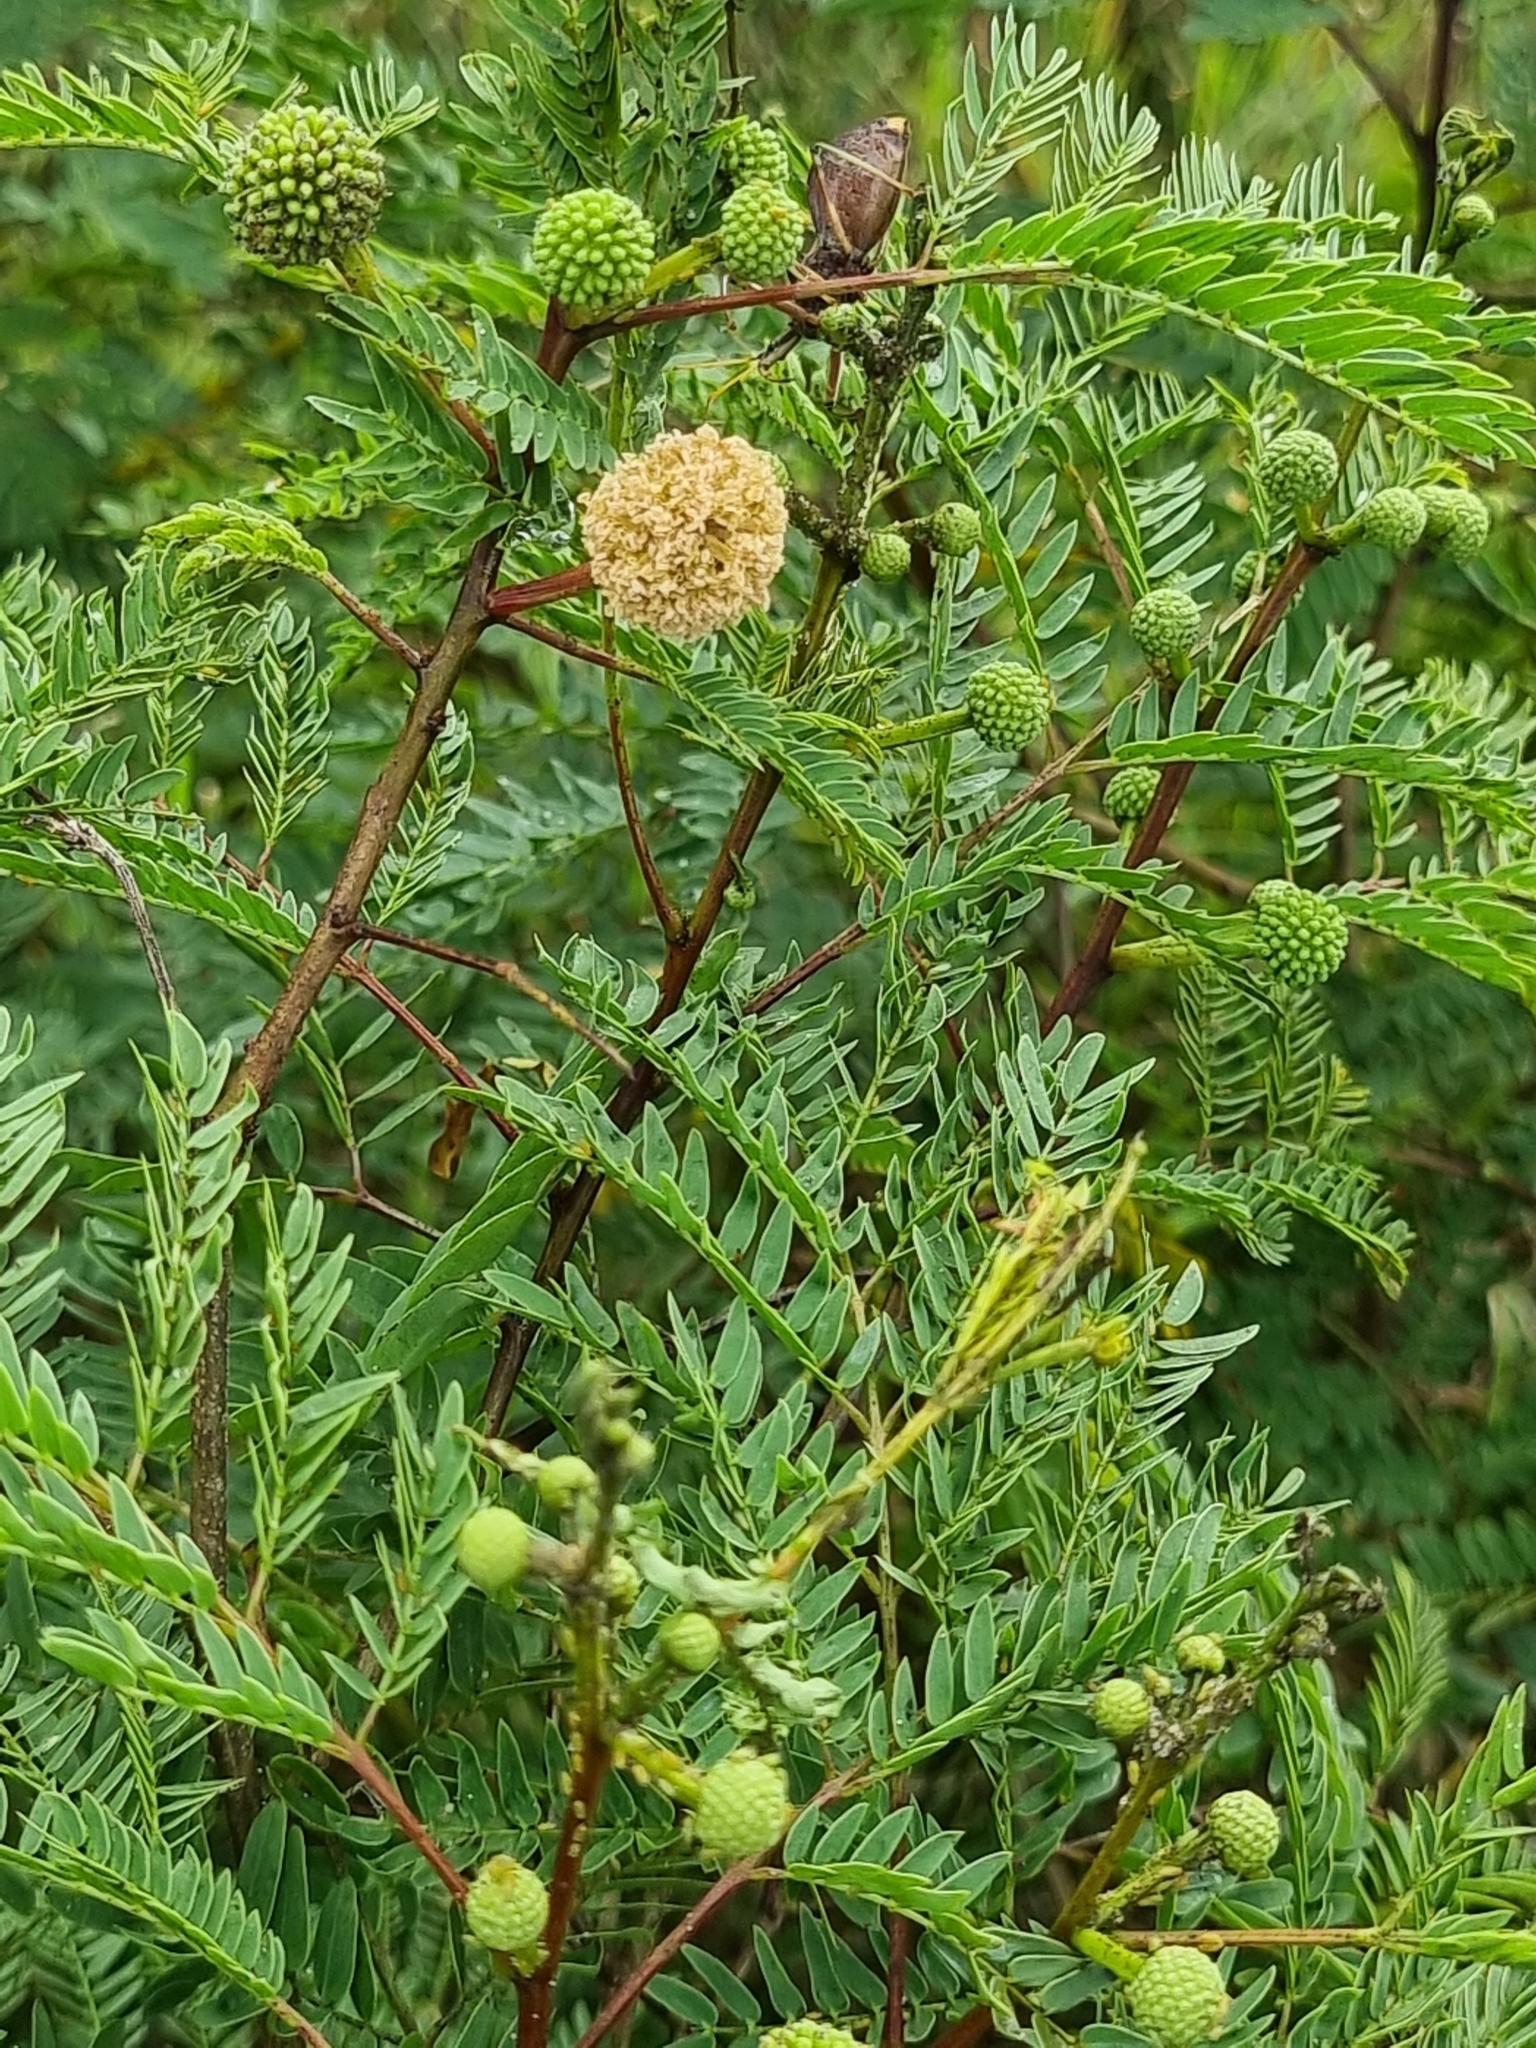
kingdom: Plantae
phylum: Tracheophyta
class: Magnoliopsida
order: Fabales
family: Fabaceae
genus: Leucaena
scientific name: Leucaena leucocephala
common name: White leadtree
